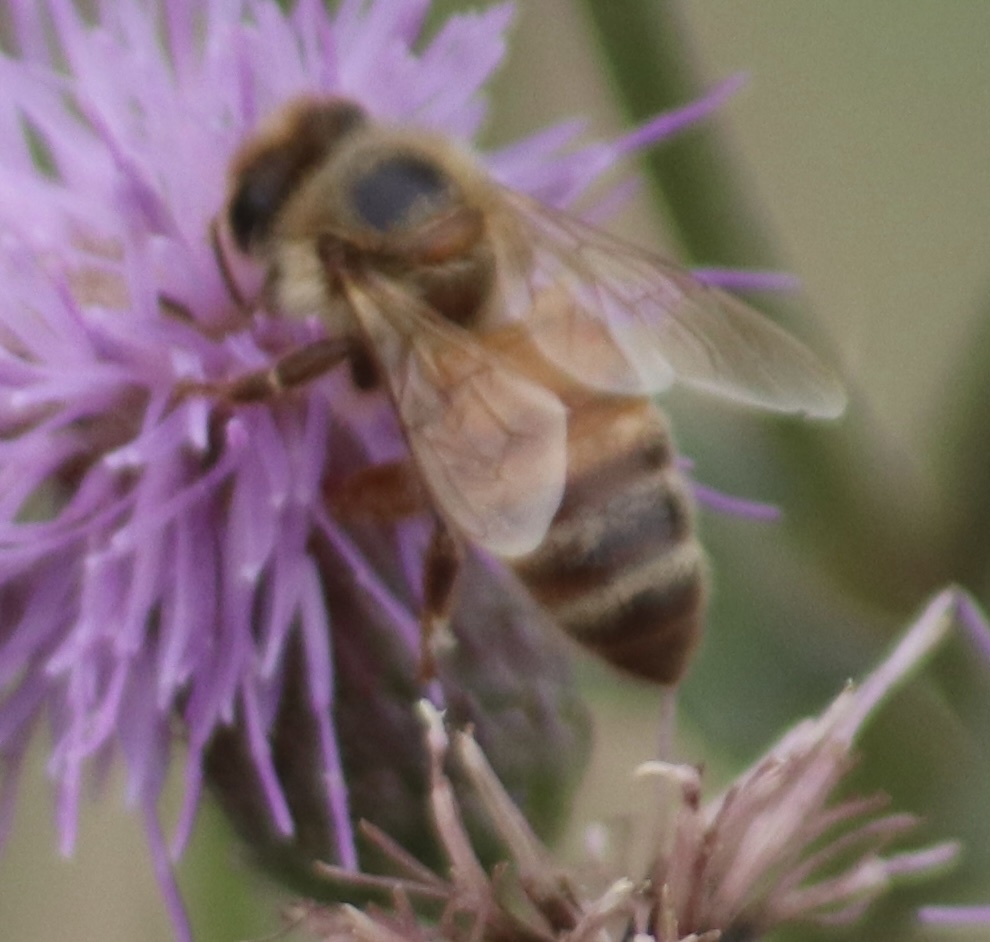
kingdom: Animalia
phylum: Arthropoda
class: Insecta
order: Hymenoptera
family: Apidae
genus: Apis
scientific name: Apis mellifera
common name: Honey bee
